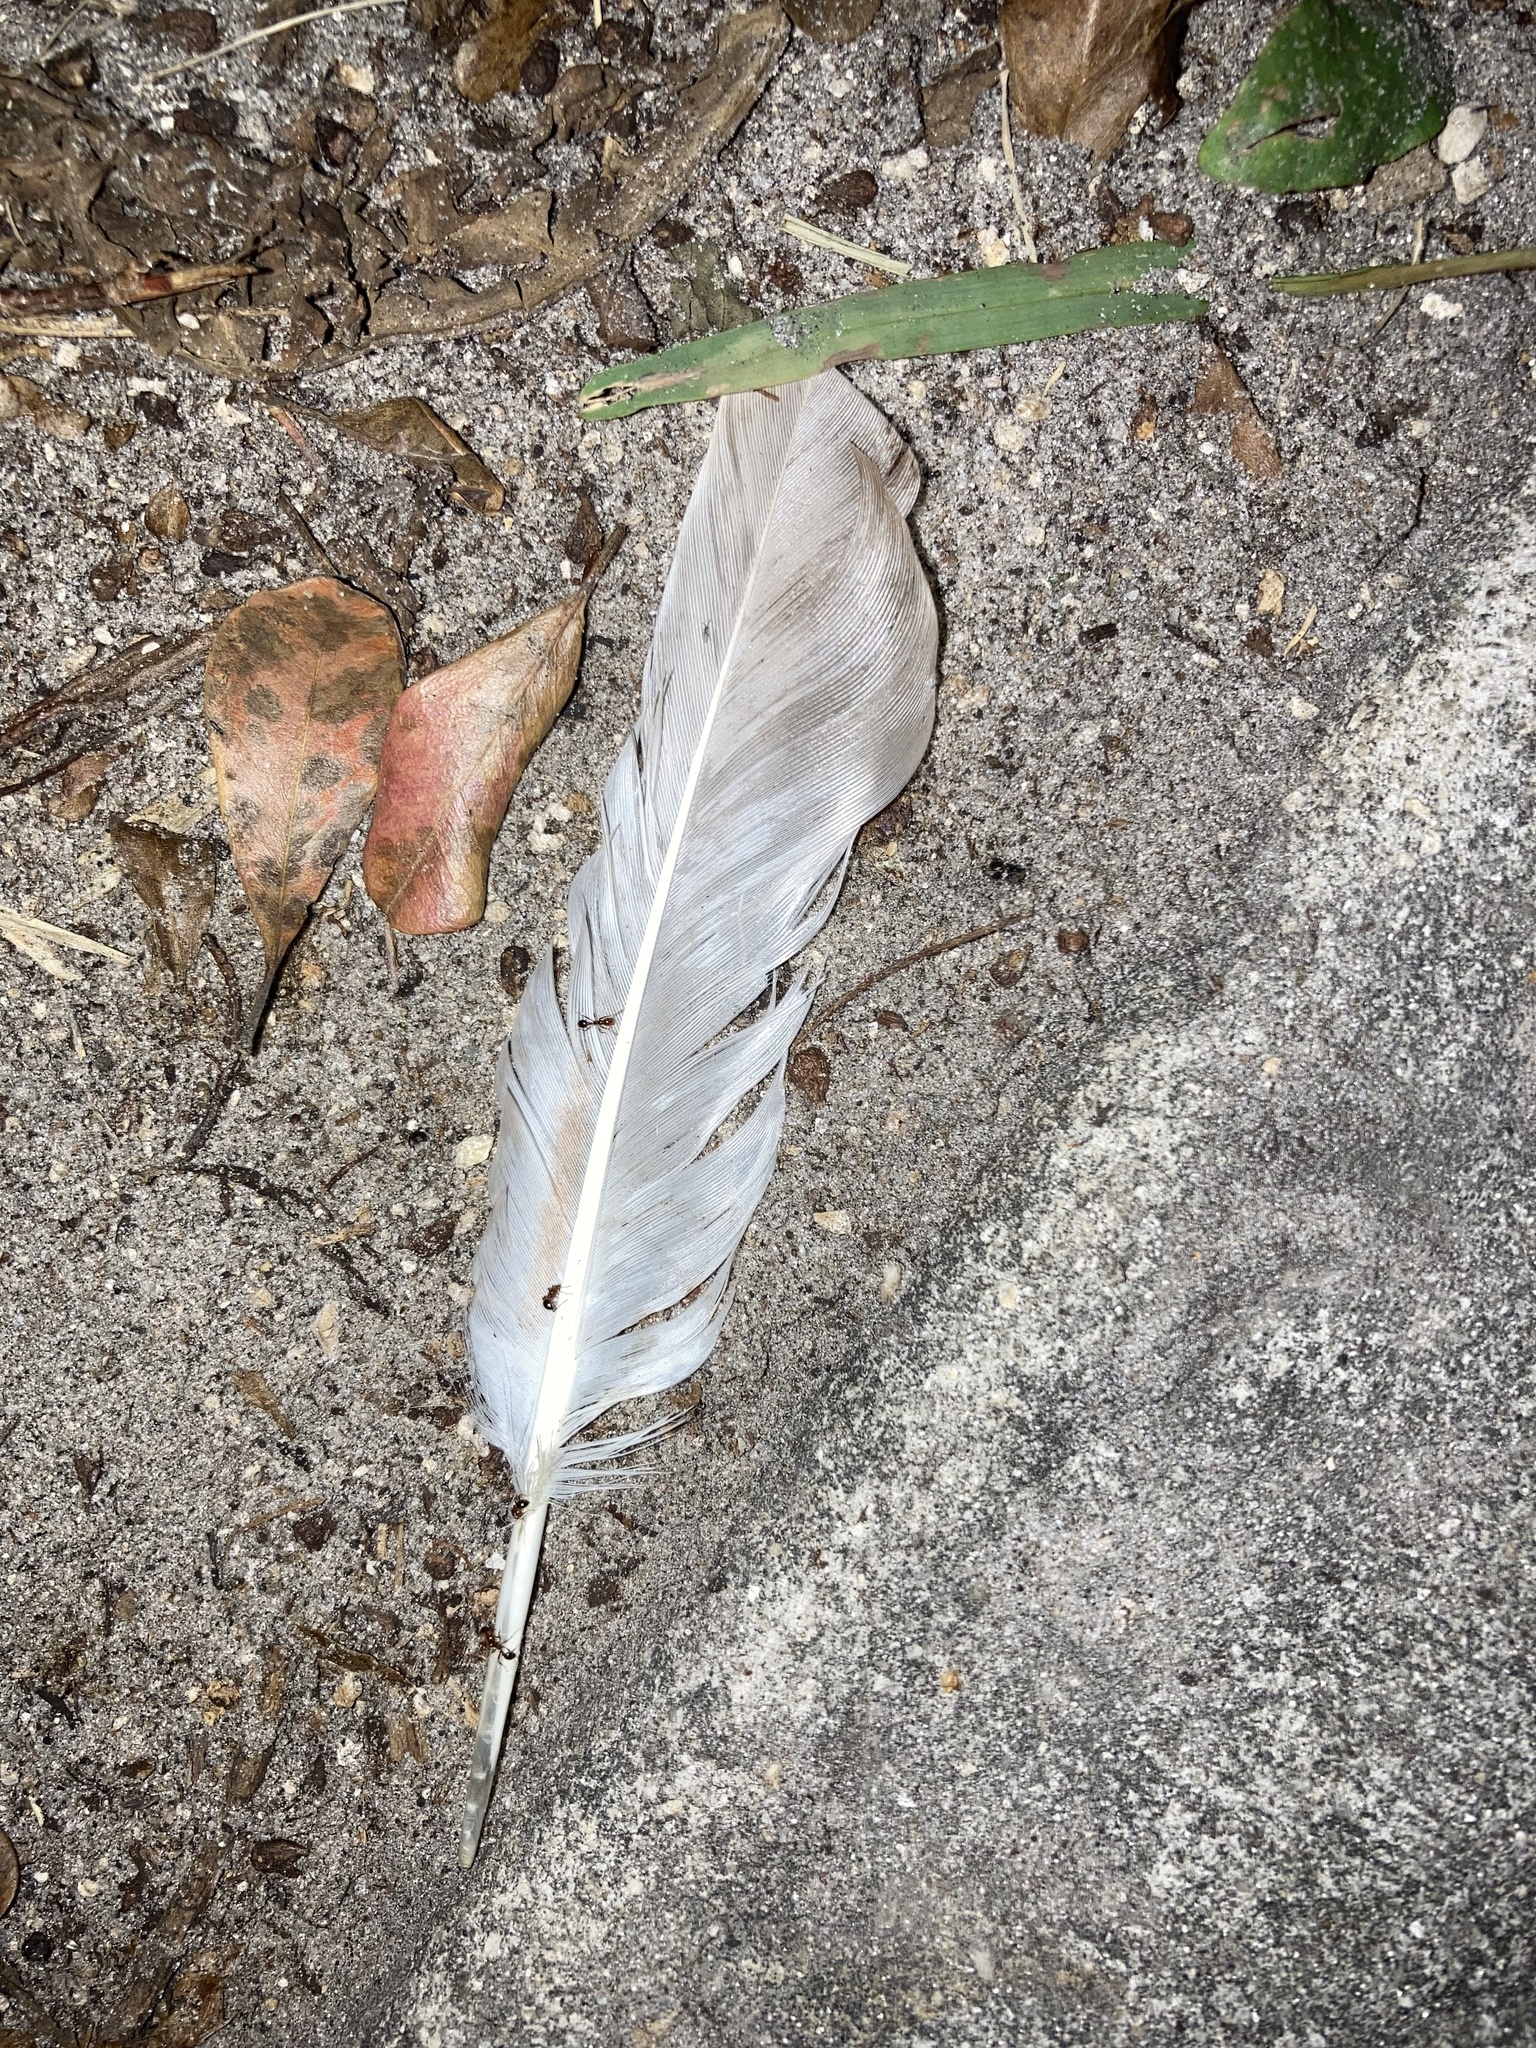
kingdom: Animalia
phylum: Chordata
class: Aves
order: Columbiformes
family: Columbidae
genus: Columba
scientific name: Columba livia
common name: Rock pigeon
